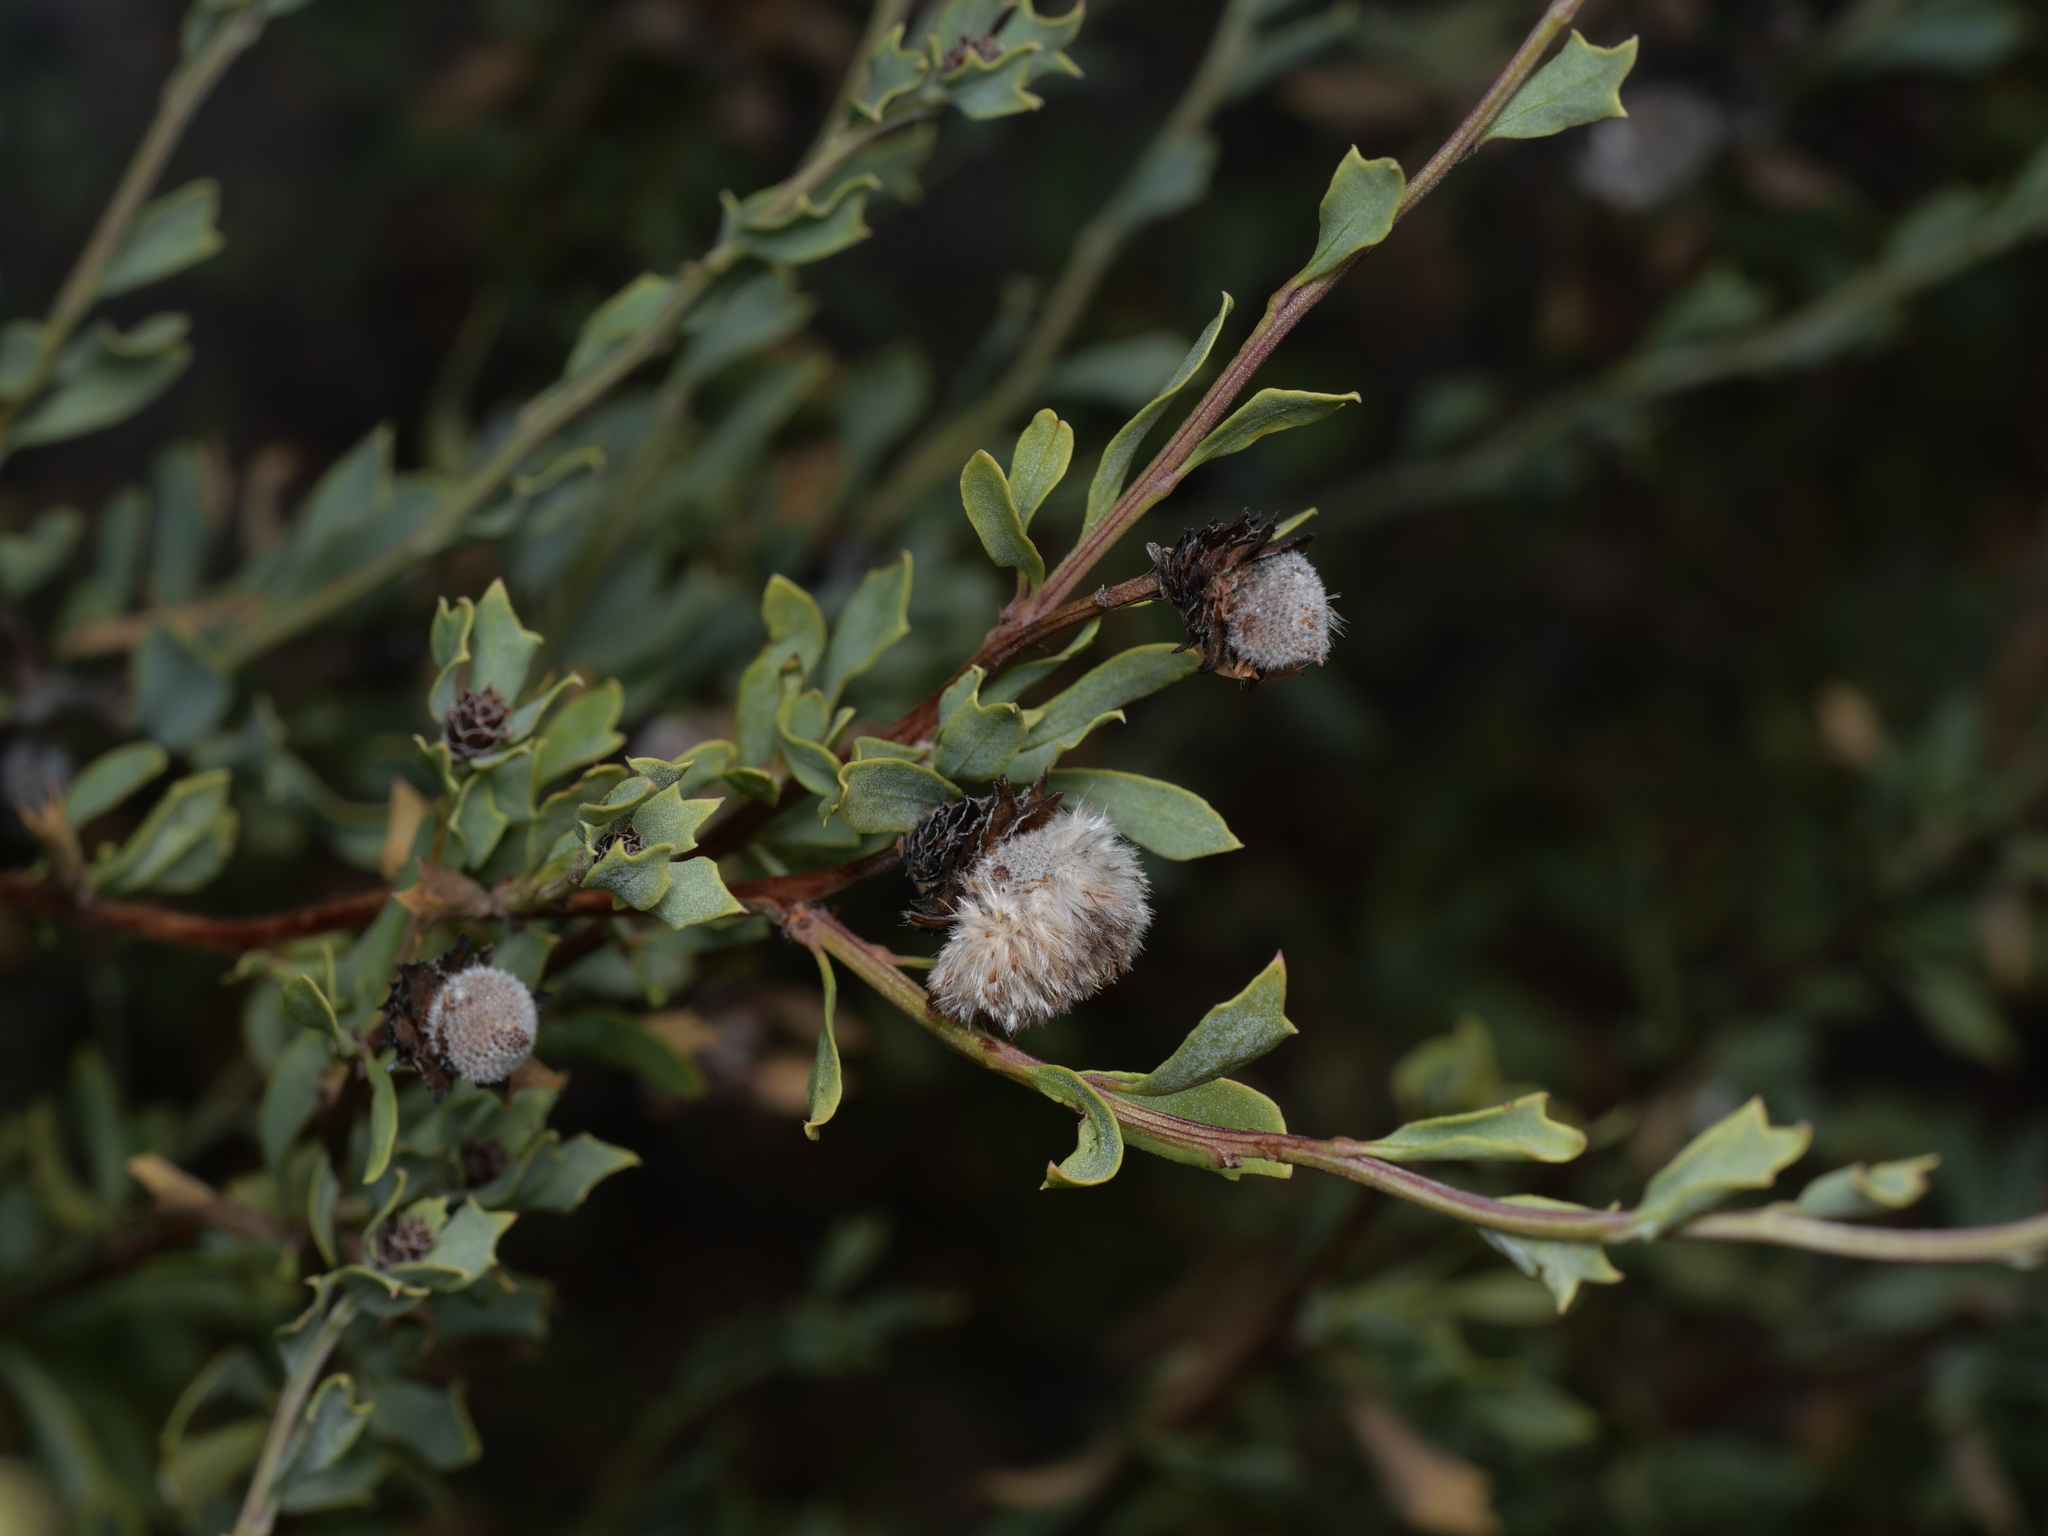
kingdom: Plantae
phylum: Tracheophyta
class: Magnoliopsida
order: Lamiales
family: Plantaginaceae
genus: Globularia
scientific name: Globularia alypum
